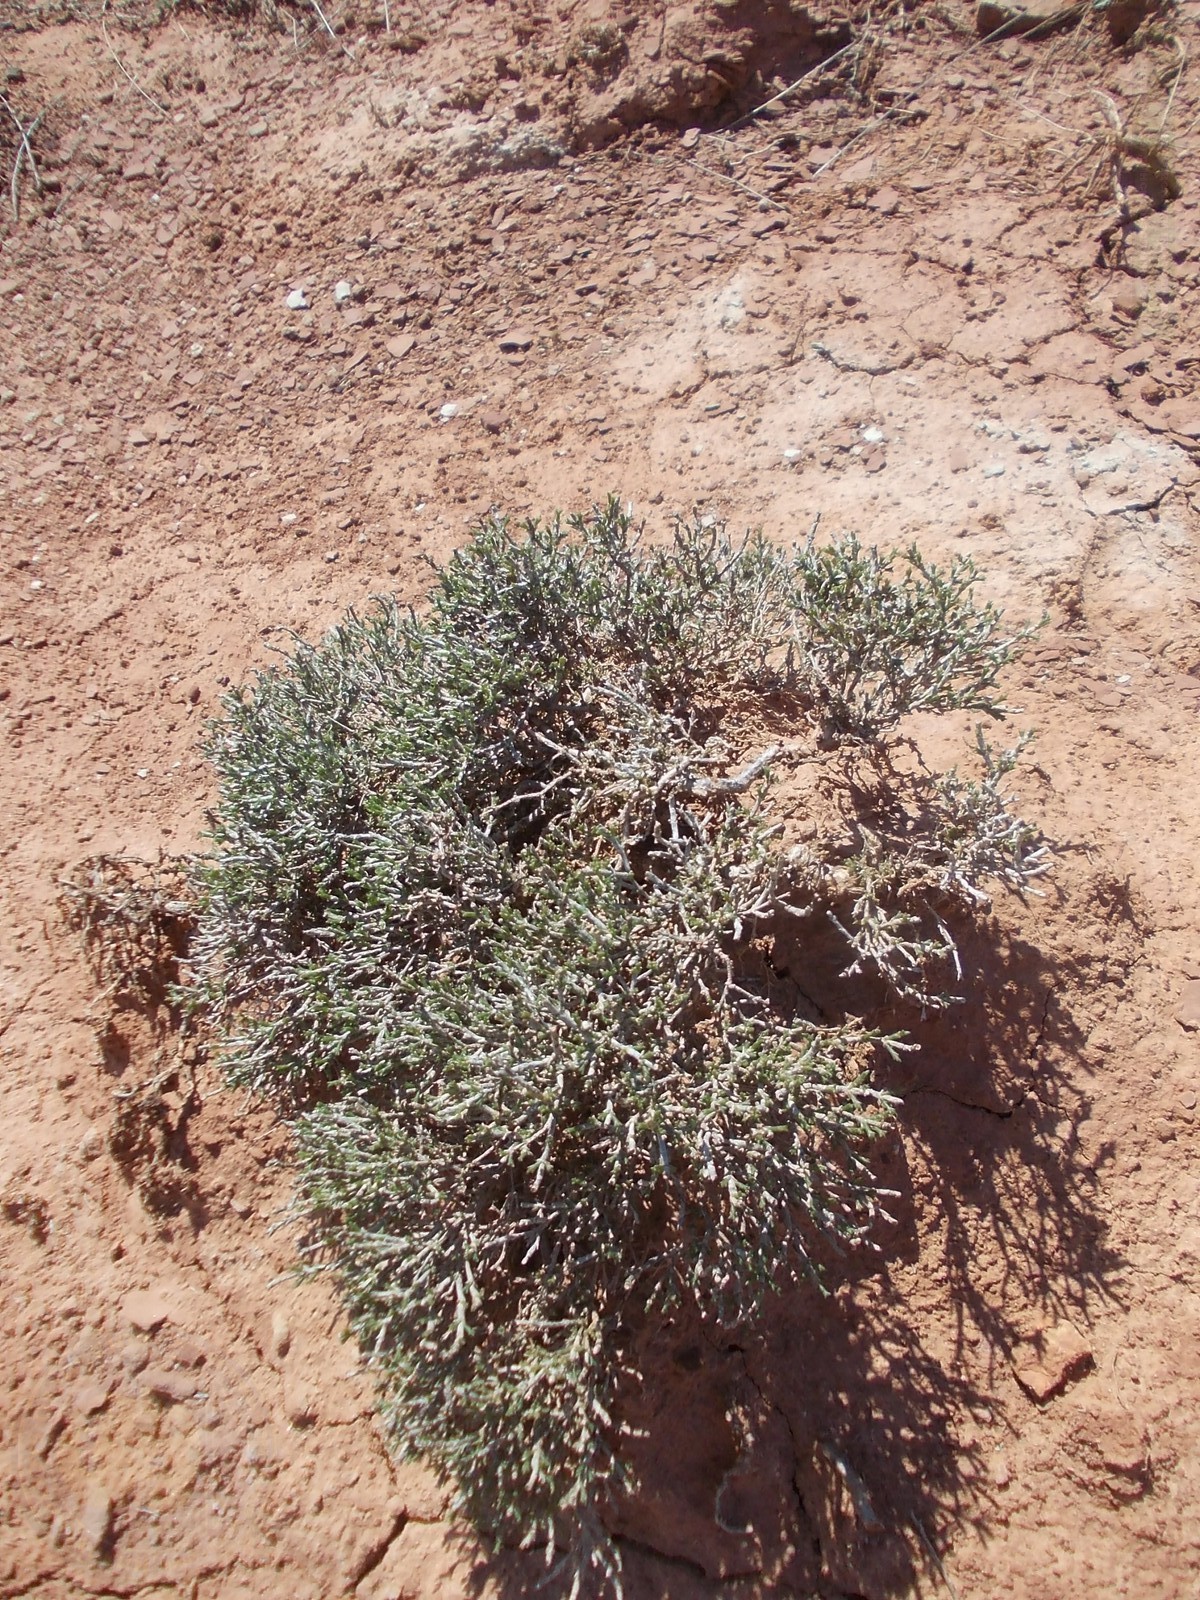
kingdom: Plantae
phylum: Tracheophyta
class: Magnoliopsida
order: Caryophyllales
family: Amaranthaceae
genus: Anabasis
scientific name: Anabasis salsa
